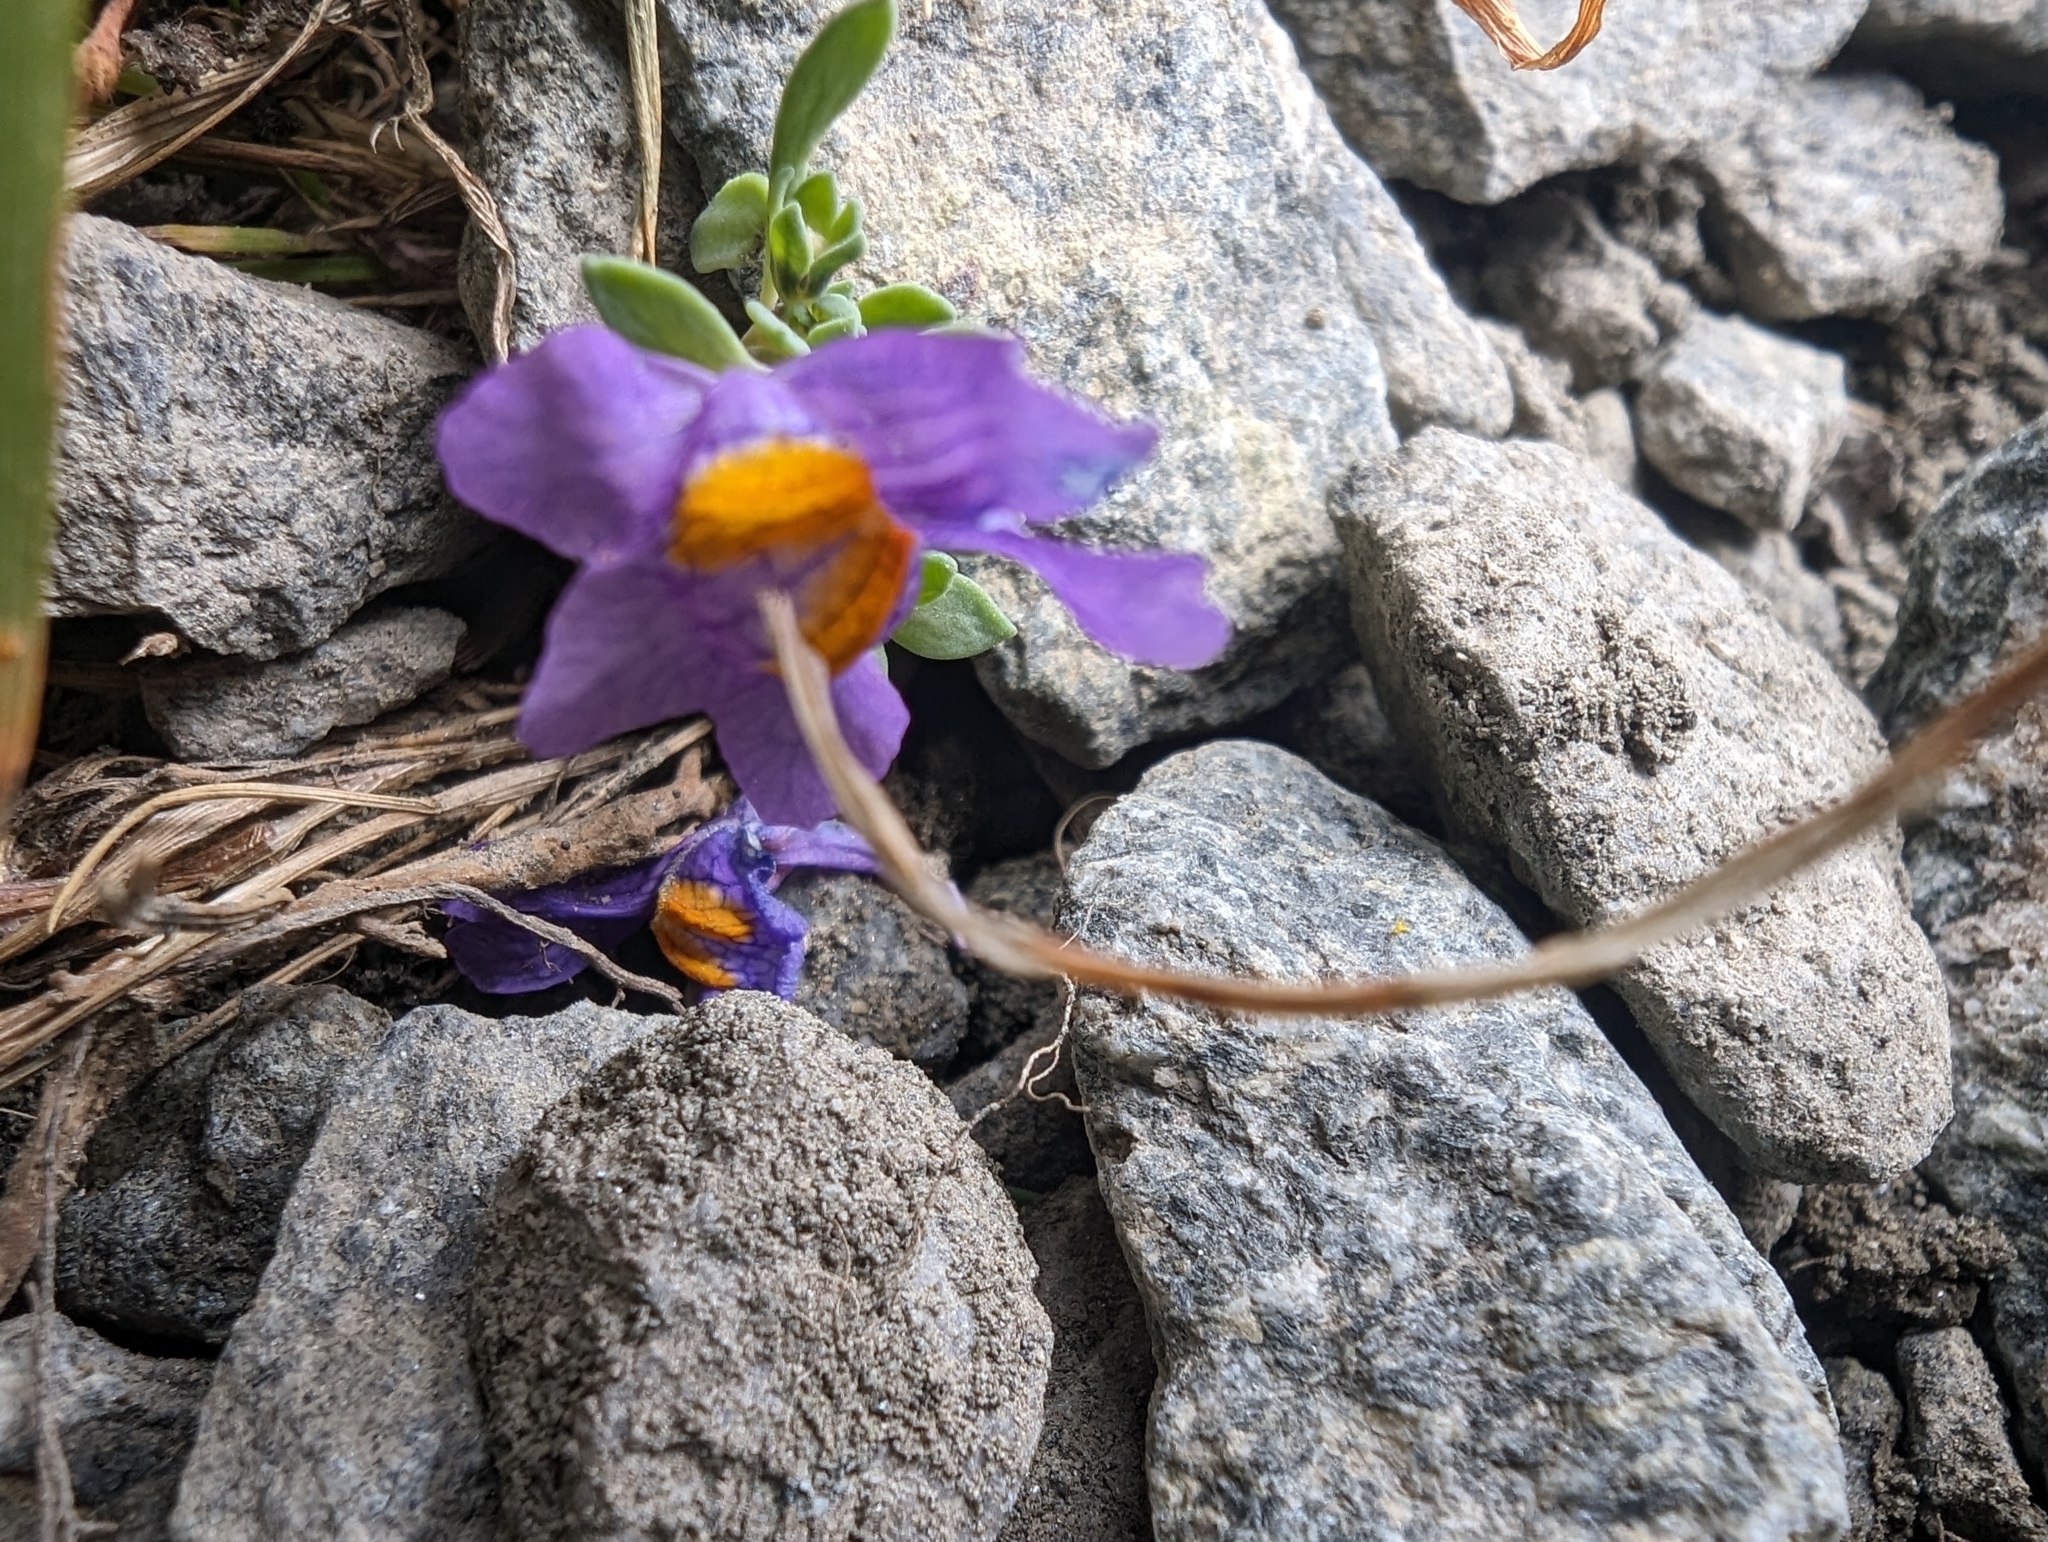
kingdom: Plantae
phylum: Tracheophyta
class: Magnoliopsida
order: Lamiales
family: Plantaginaceae
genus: Linaria
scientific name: Linaria alpina
